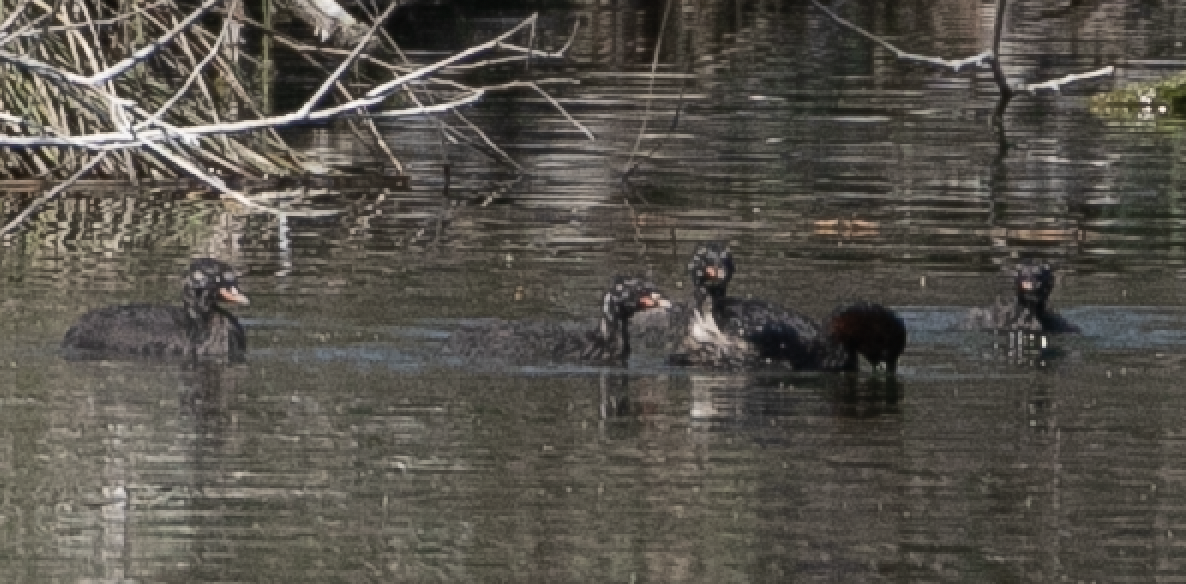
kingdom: Animalia
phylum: Chordata
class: Aves
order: Podicipediformes
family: Podicipedidae
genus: Tachybaptus
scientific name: Tachybaptus ruficollis
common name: Little grebe
